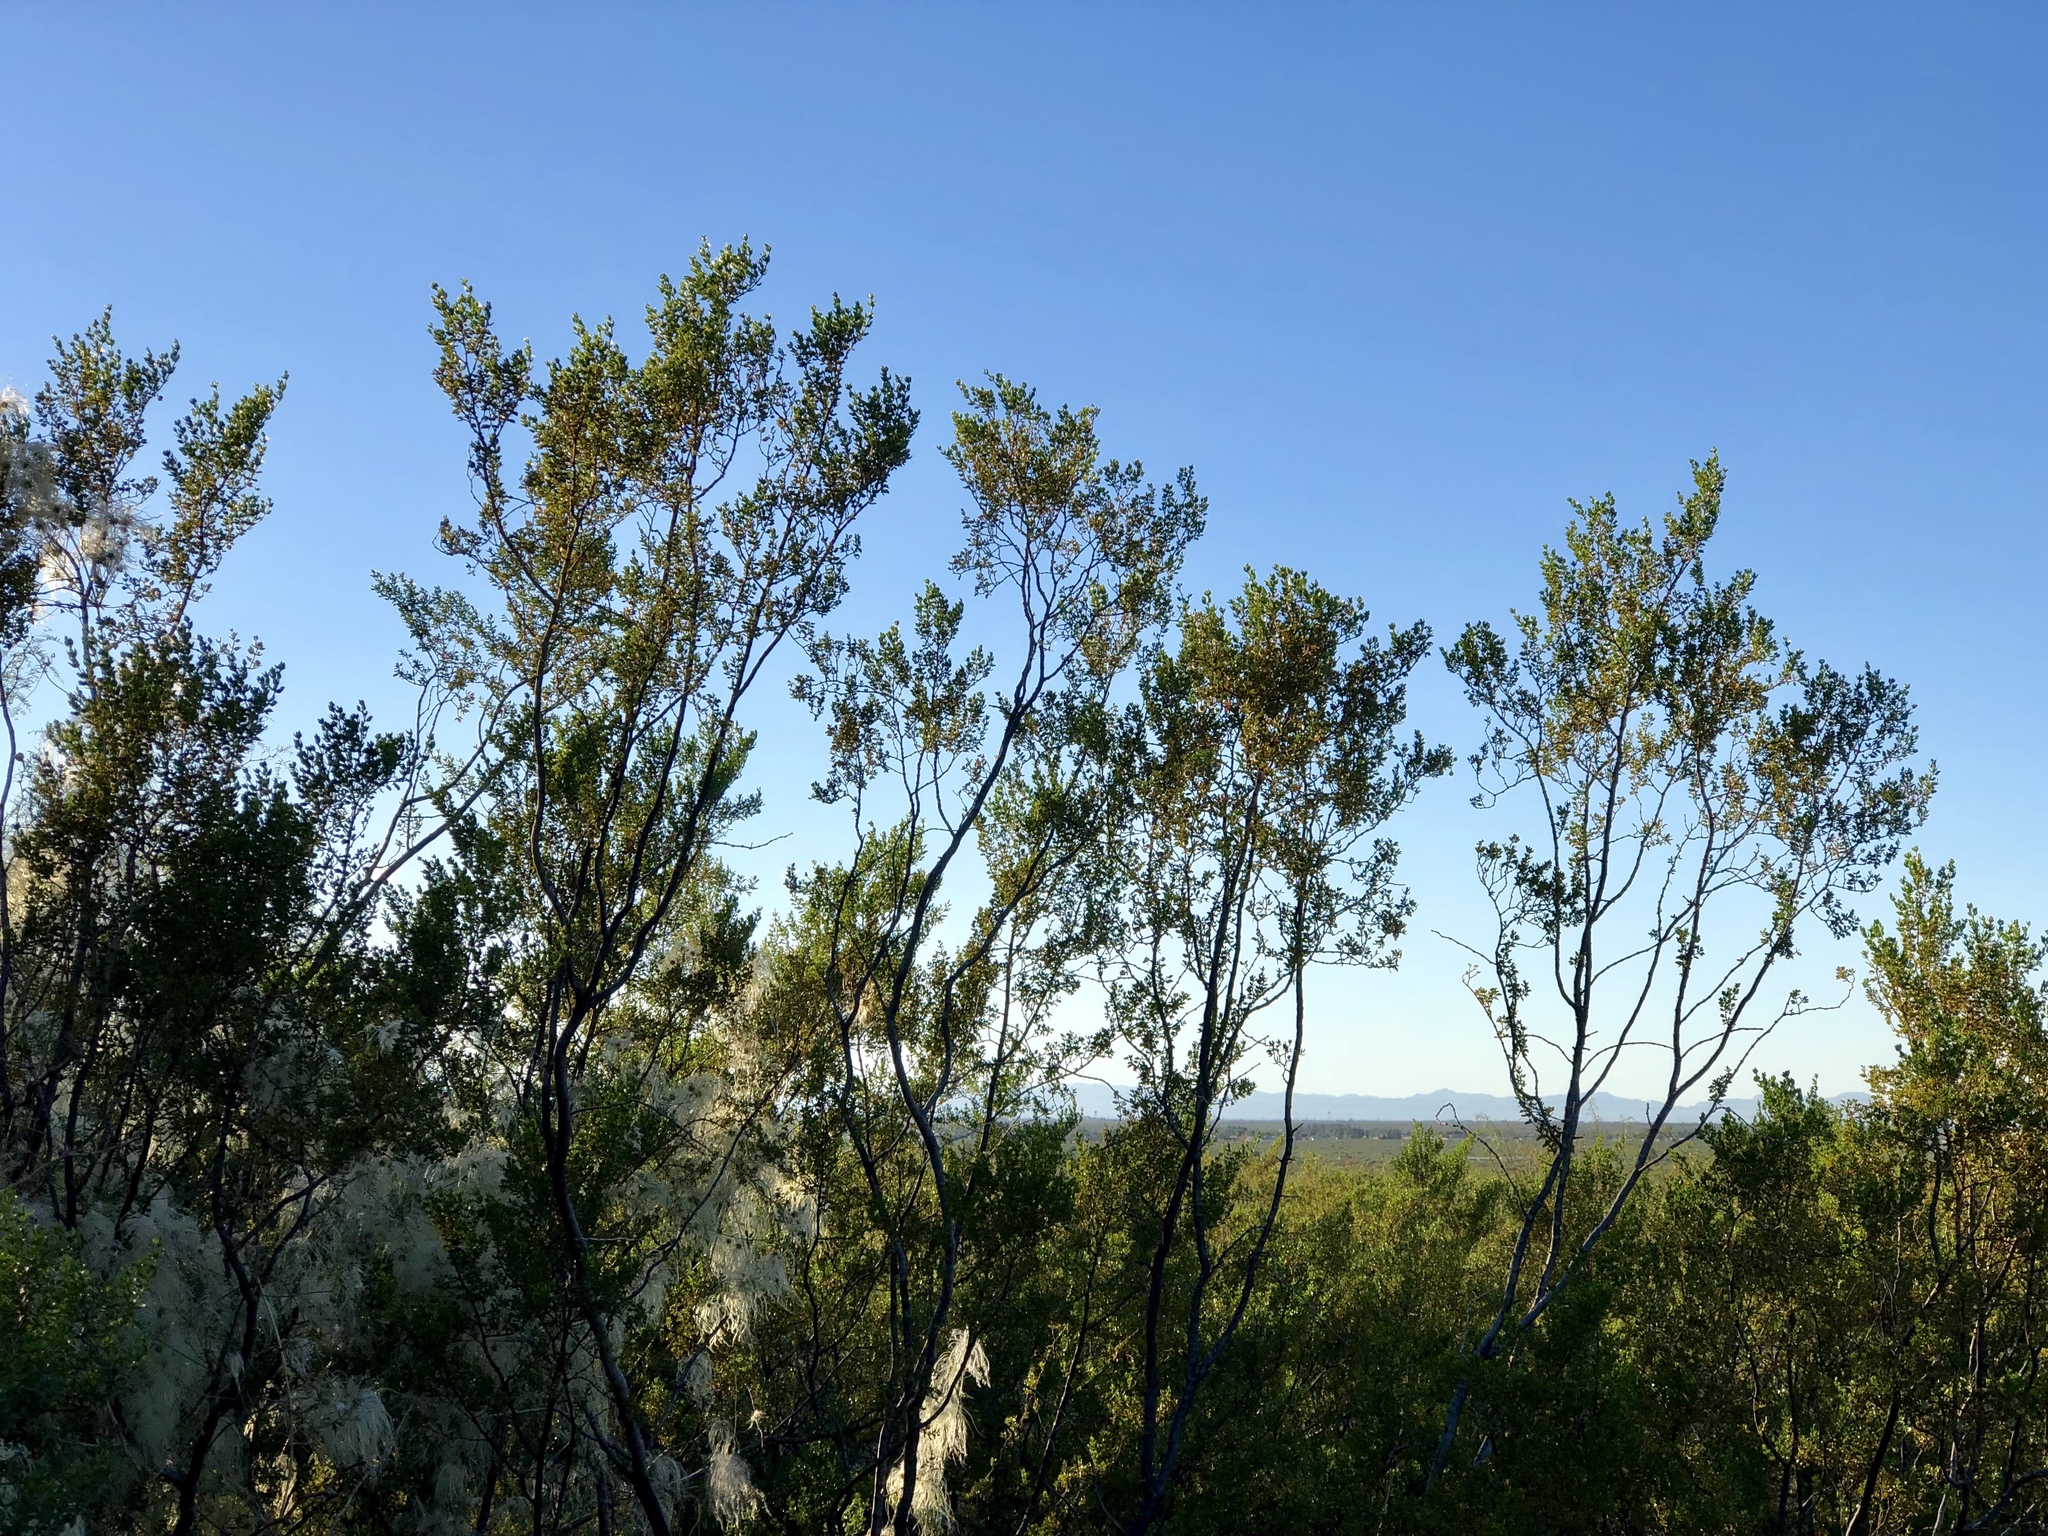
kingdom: Plantae
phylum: Tracheophyta
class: Magnoliopsida
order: Zygophyllales
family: Zygophyllaceae
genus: Larrea
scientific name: Larrea tridentata
